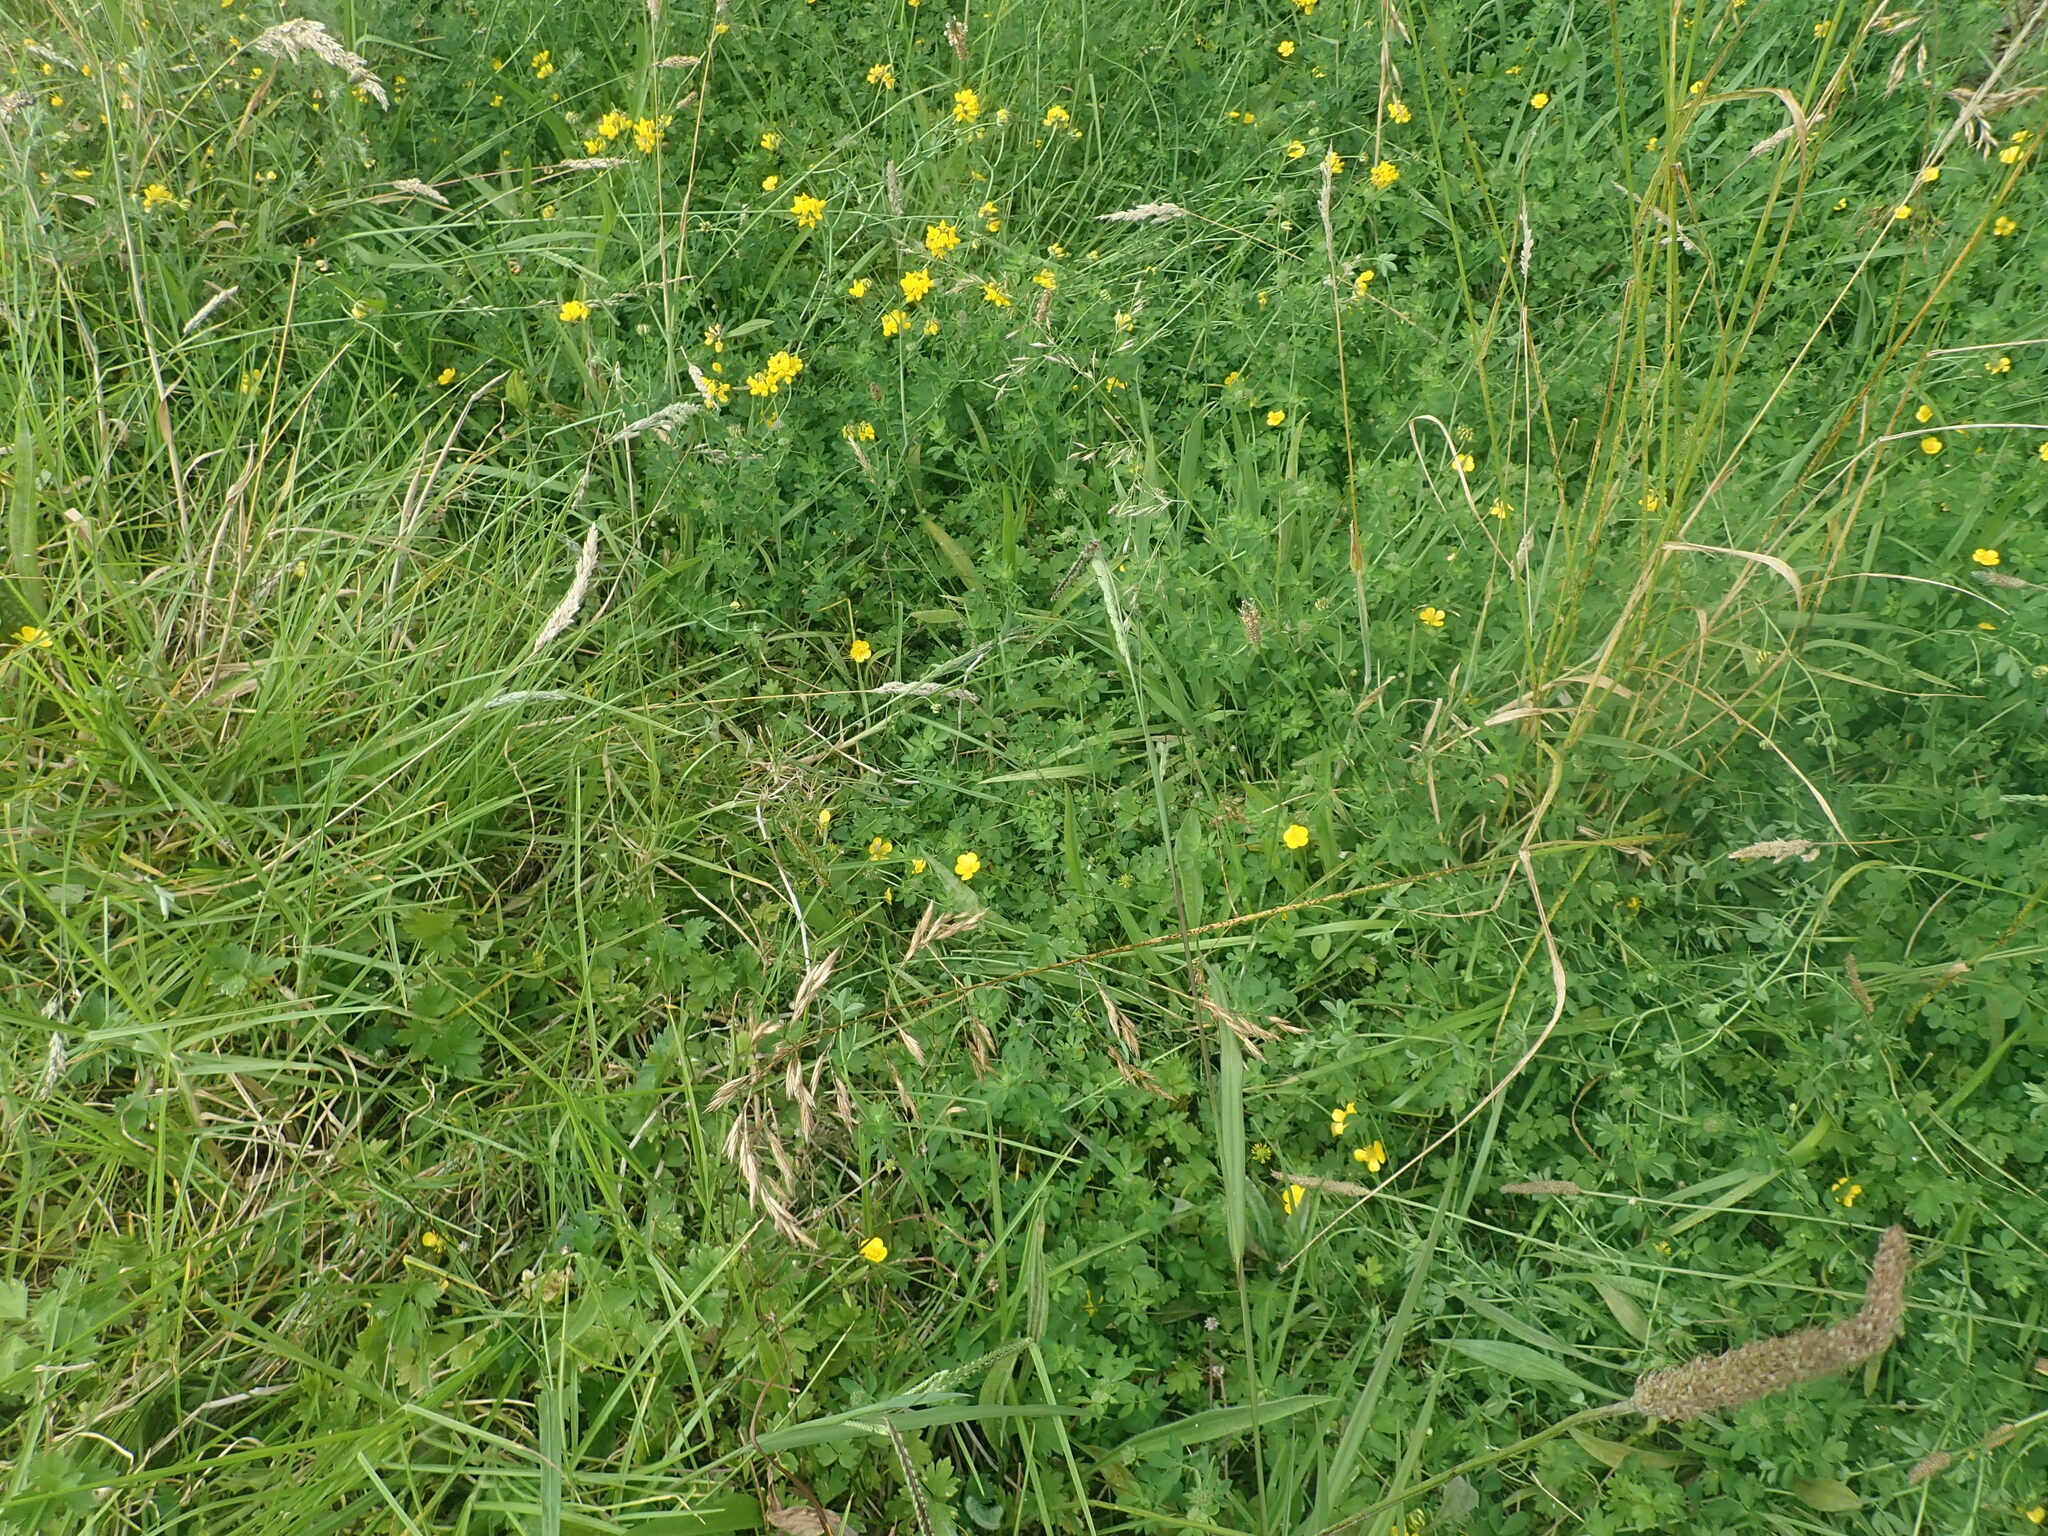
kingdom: Plantae
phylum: Tracheophyta
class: Magnoliopsida
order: Fabales
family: Fabaceae
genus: Lotus
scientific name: Lotus pedunculatus
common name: Greater birdsfoot-trefoil
